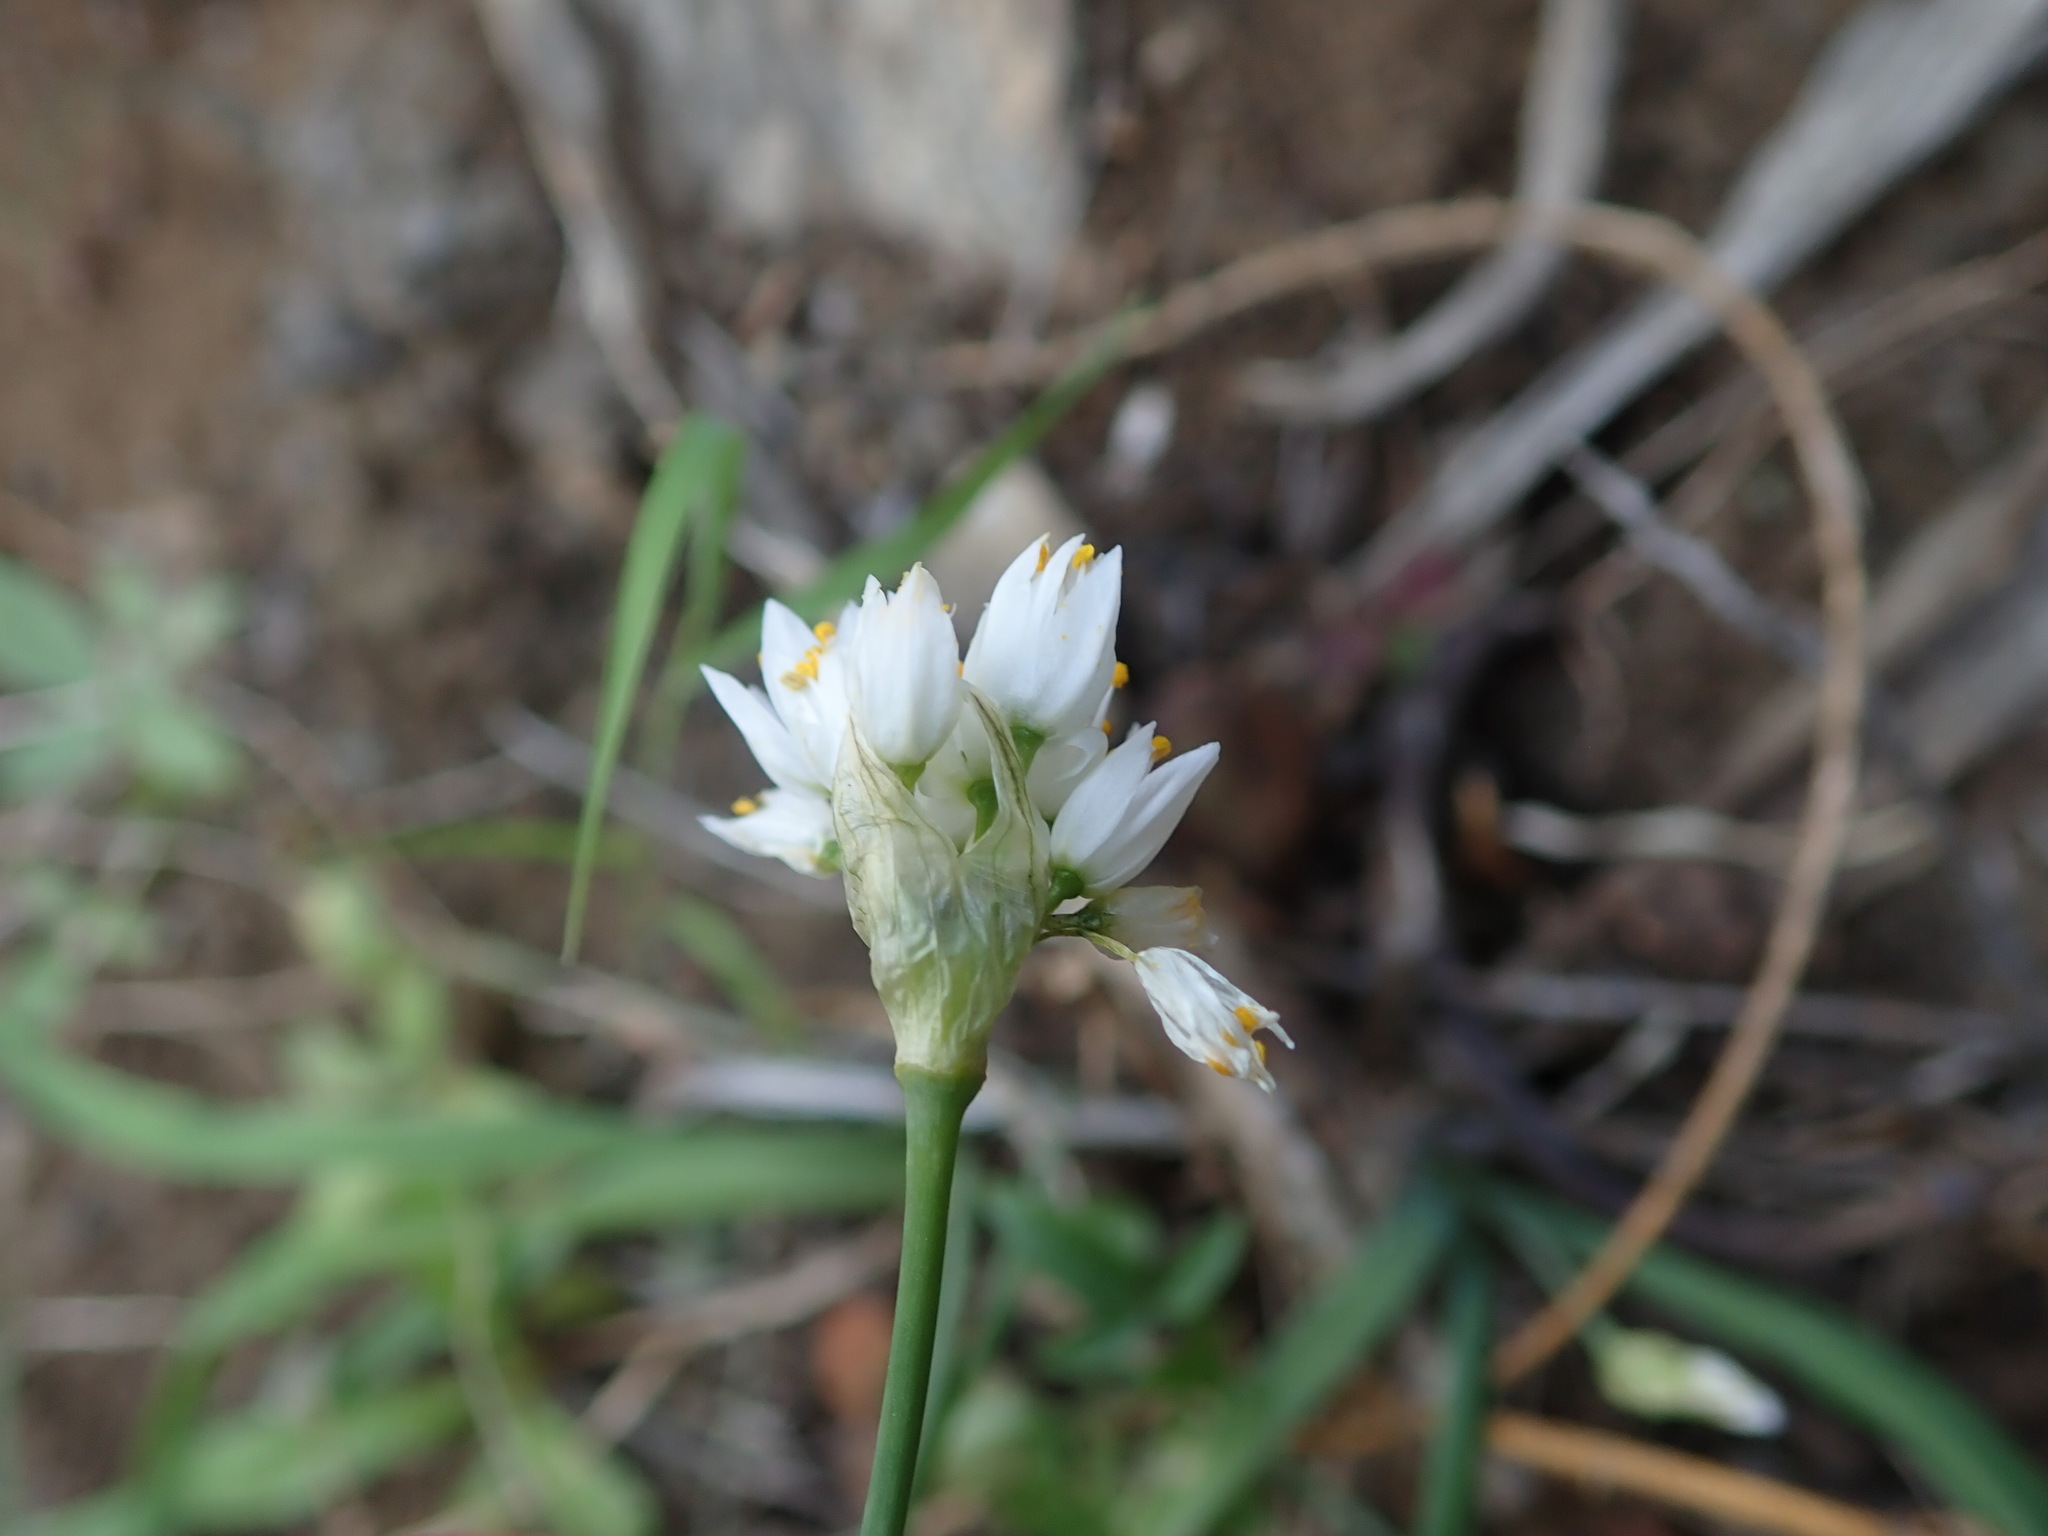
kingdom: Plantae
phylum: Tracheophyta
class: Liliopsida
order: Asparagales
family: Amaryllidaceae
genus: Allium
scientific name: Allium canariense
